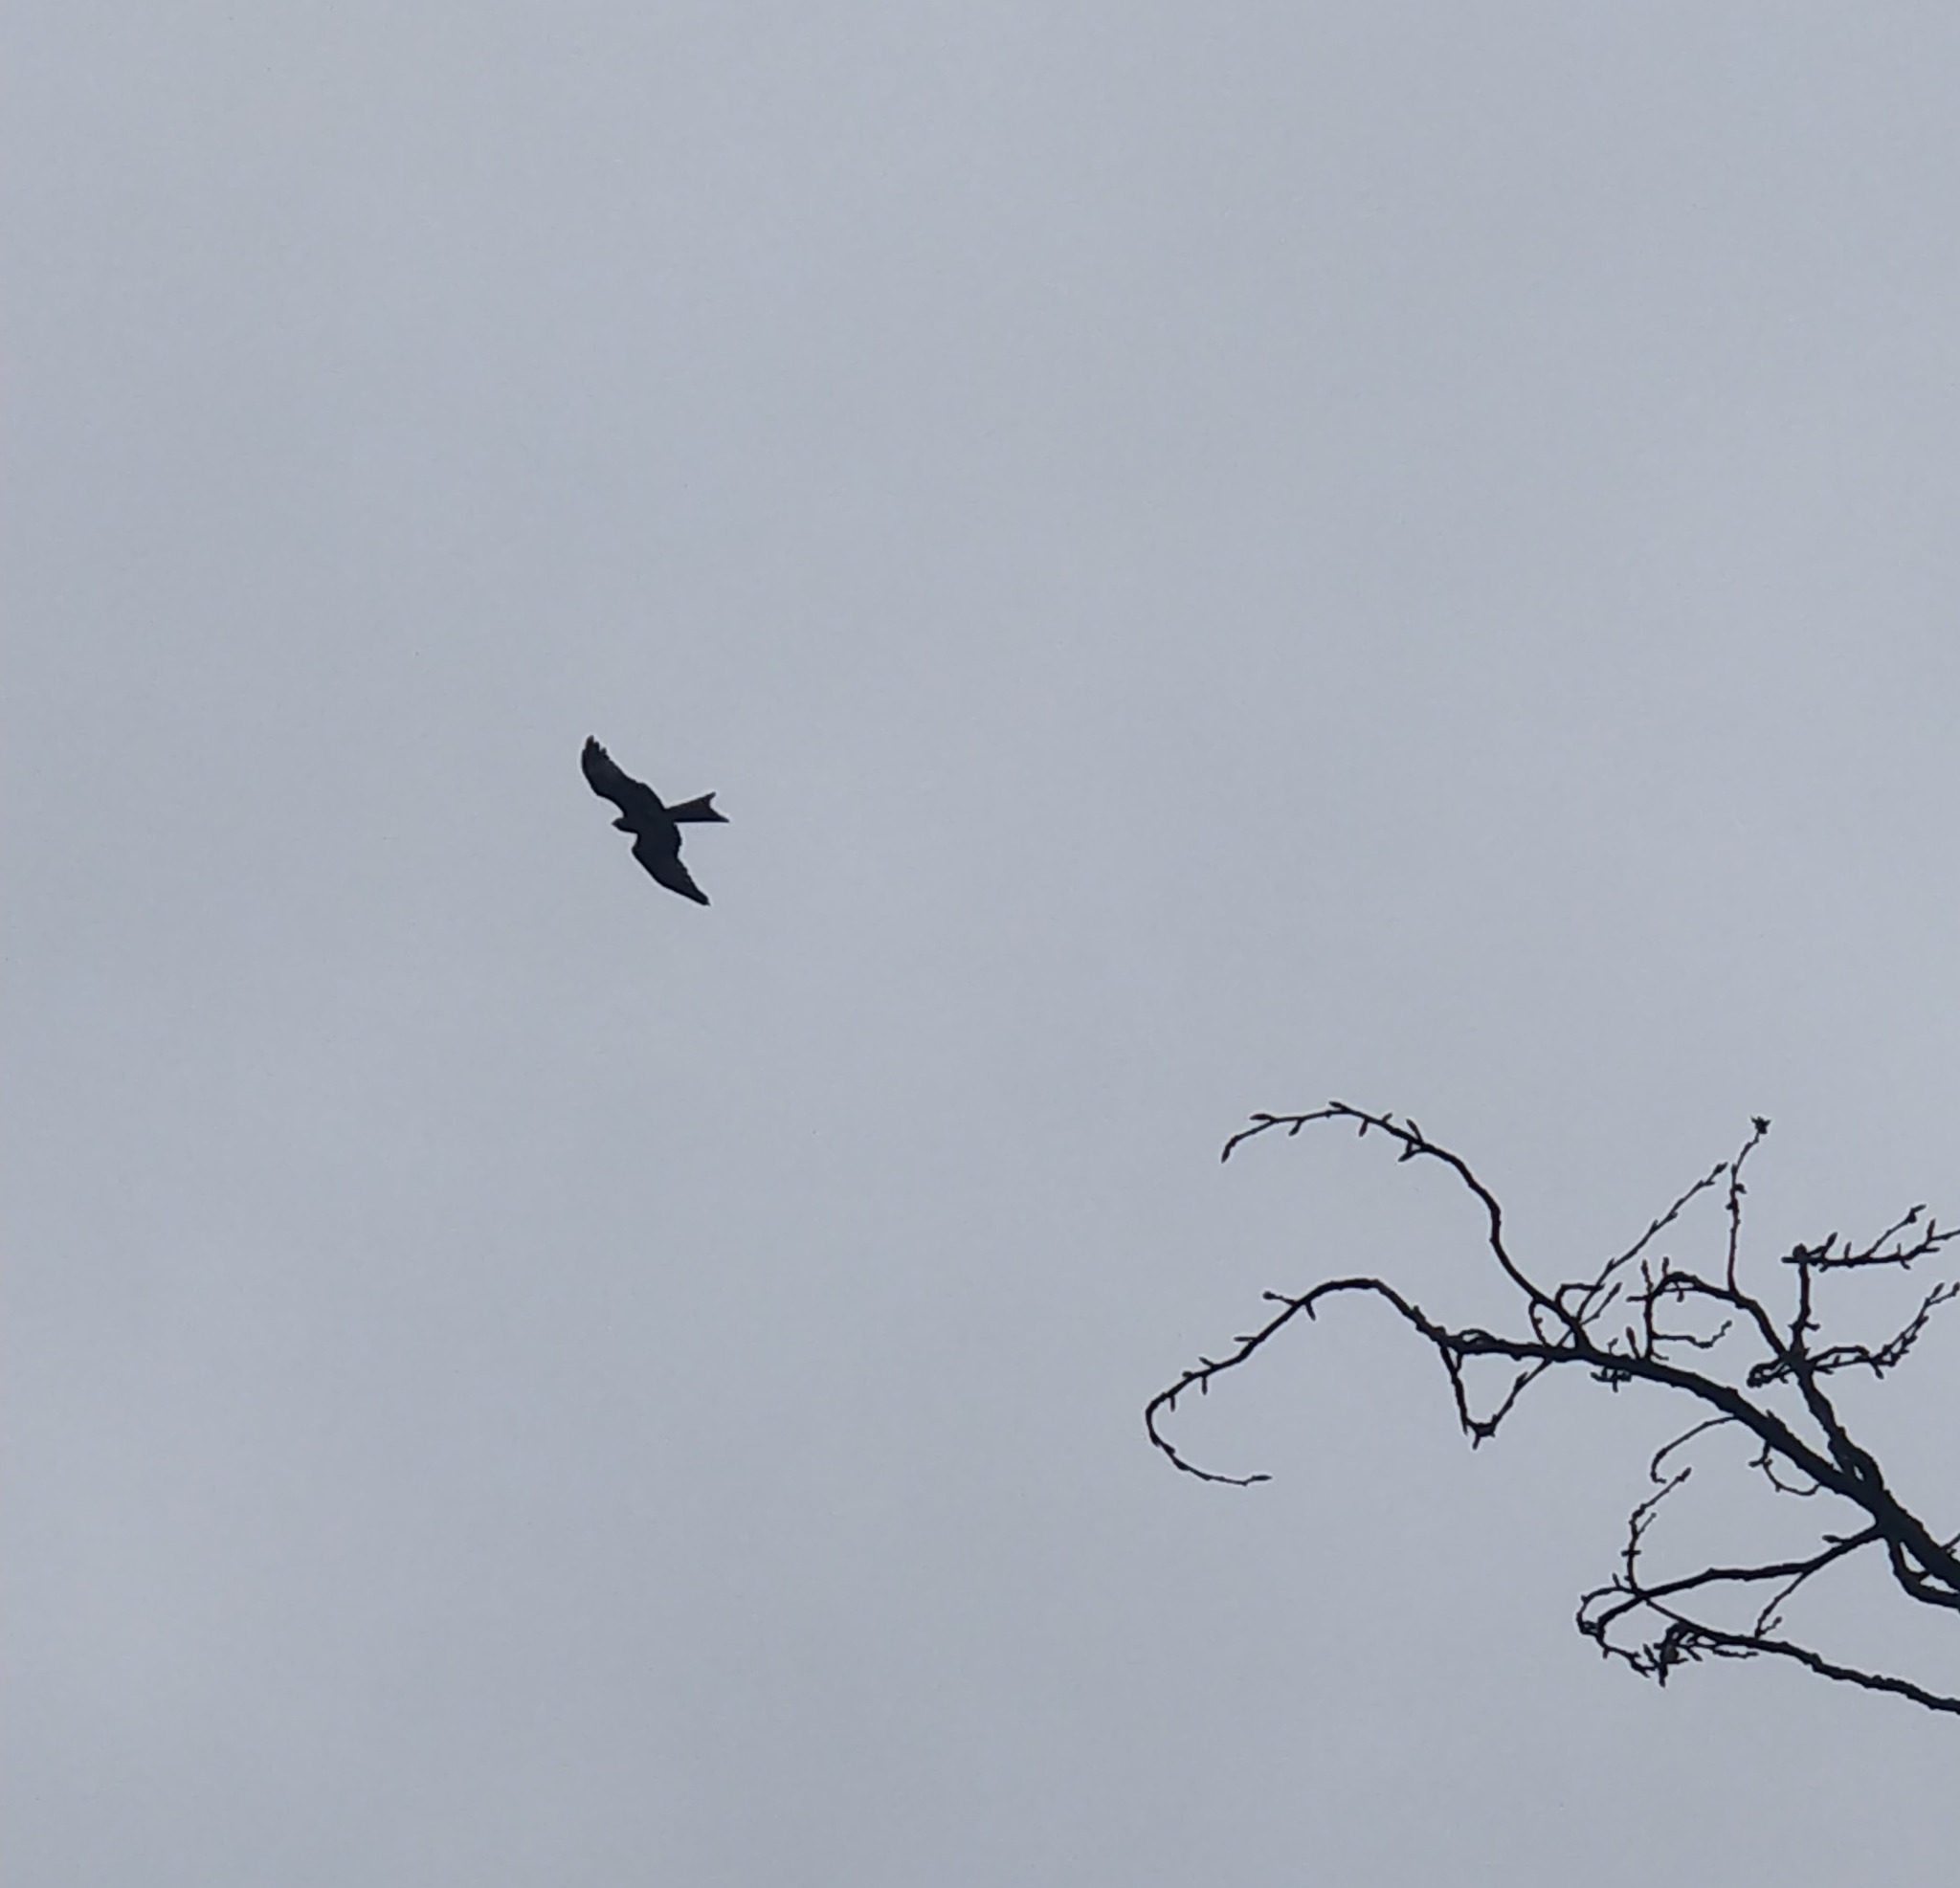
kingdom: Animalia
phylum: Chordata
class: Aves
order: Accipitriformes
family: Accipitridae
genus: Milvus
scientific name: Milvus milvus
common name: Red kite
